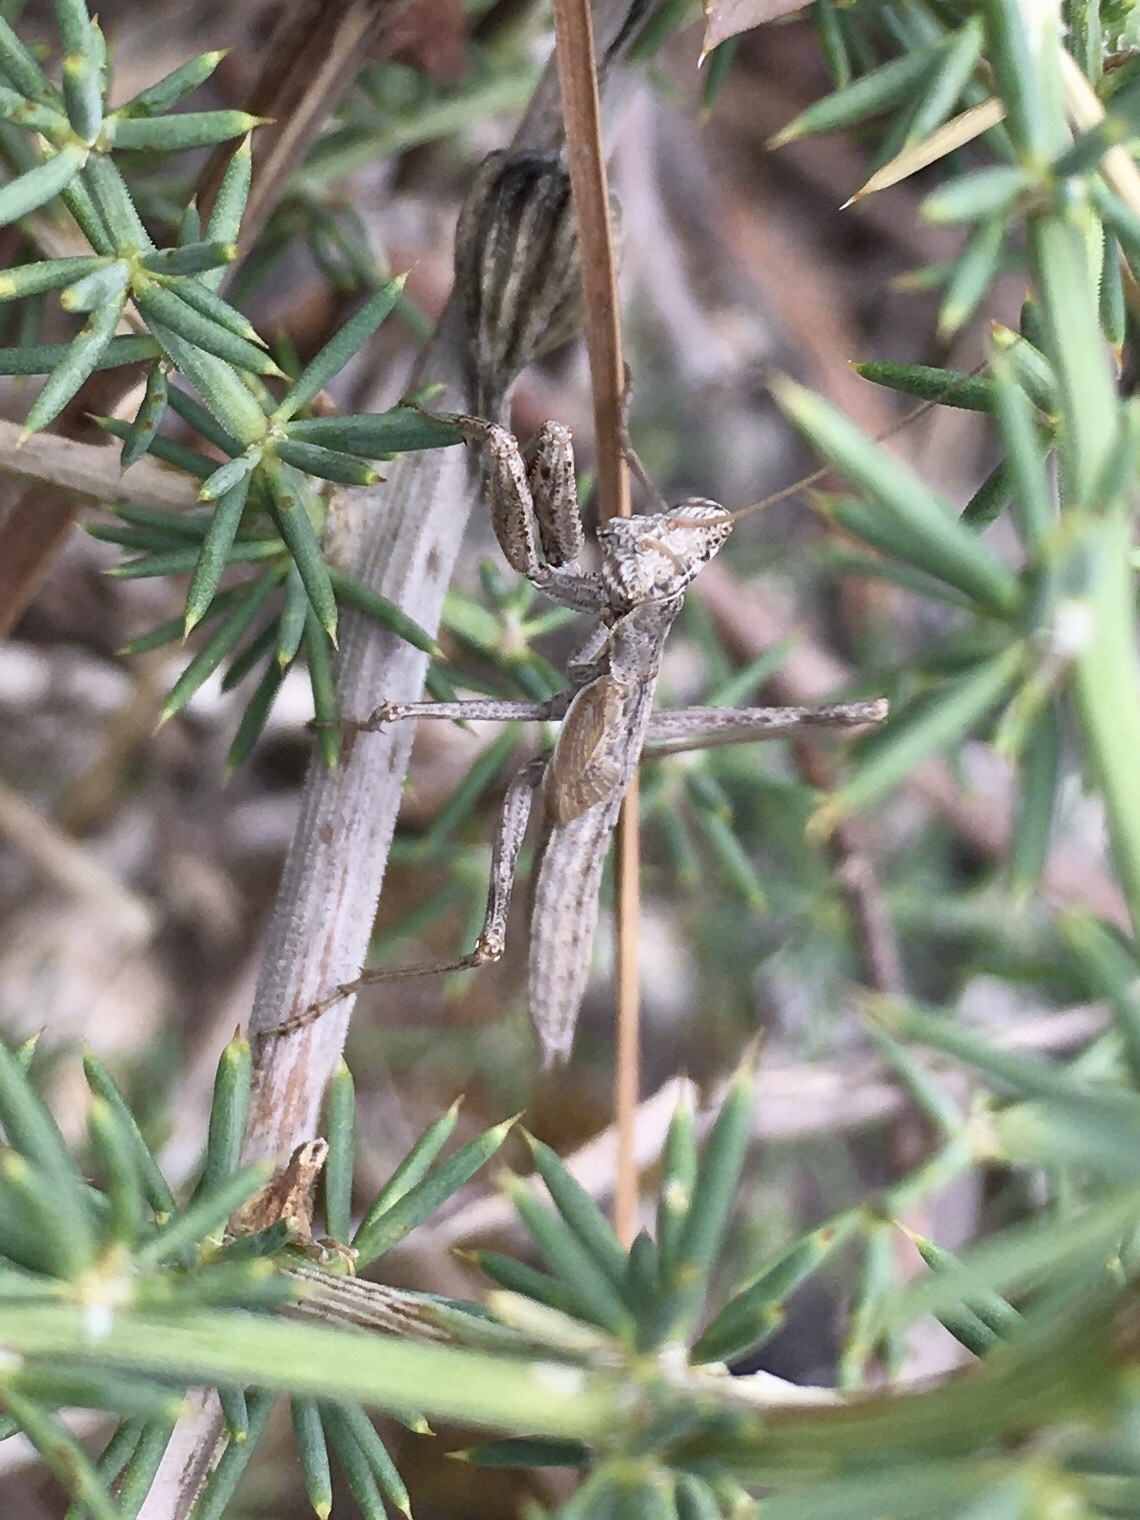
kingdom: Animalia
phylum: Arthropoda
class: Insecta
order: Mantodea
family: Amelidae
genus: Ameles
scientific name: Ameles decolor
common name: Dwarf mantis
